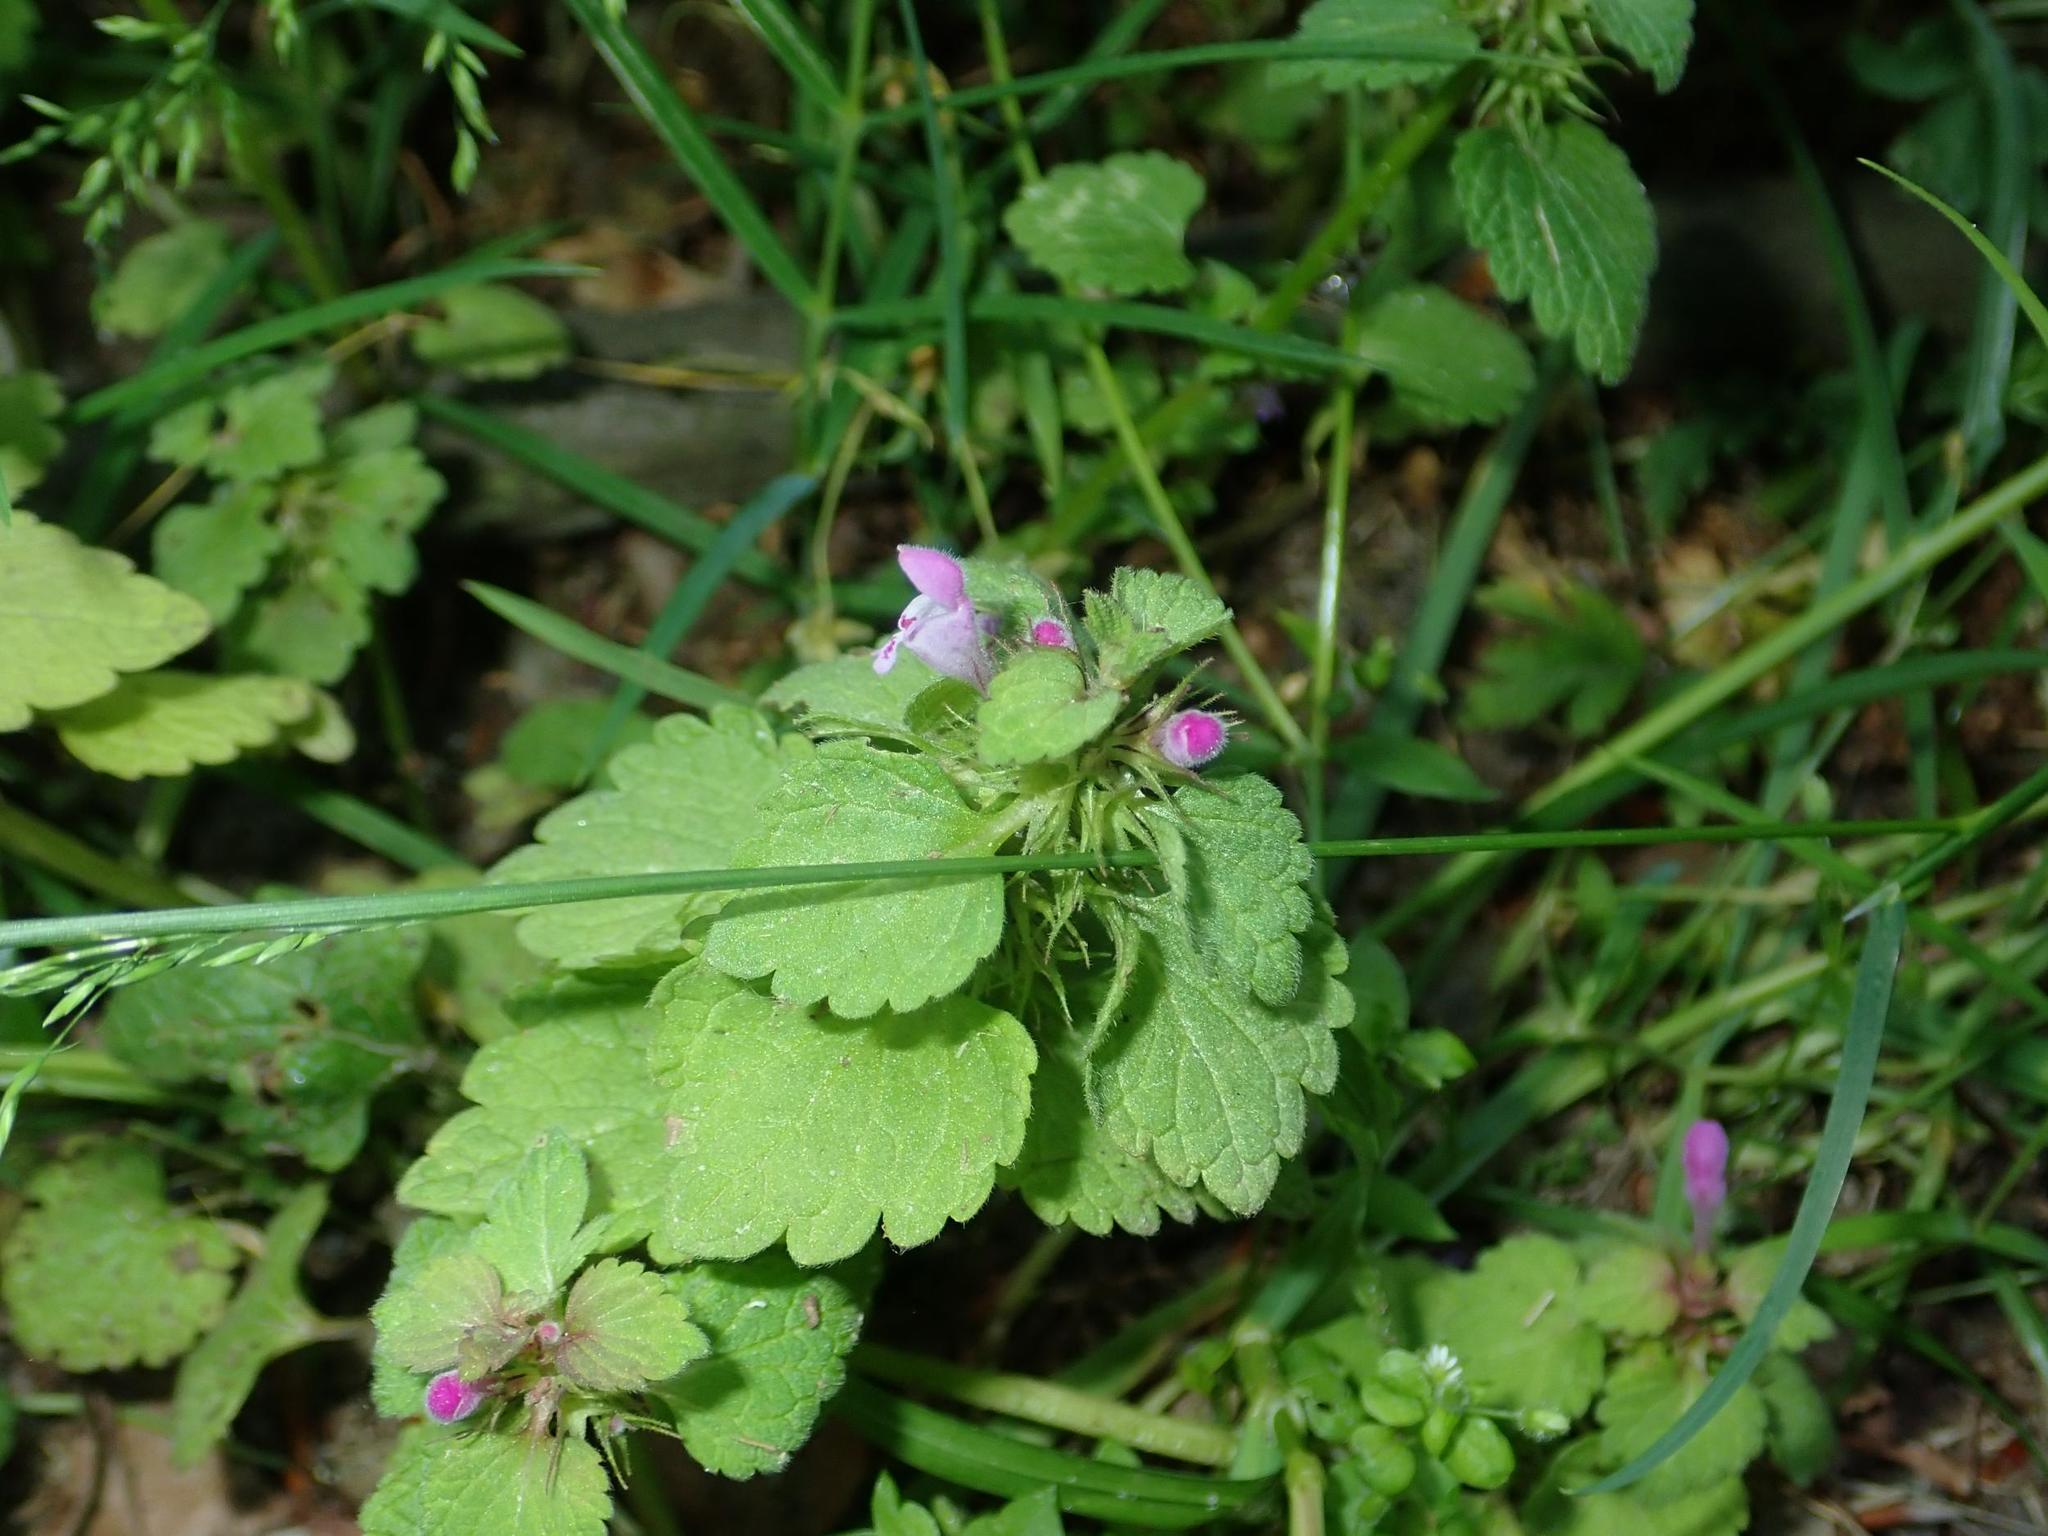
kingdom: Plantae
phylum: Tracheophyta
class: Magnoliopsida
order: Lamiales
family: Lamiaceae
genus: Lamium
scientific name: Lamium purpureum
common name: Red dead-nettle
